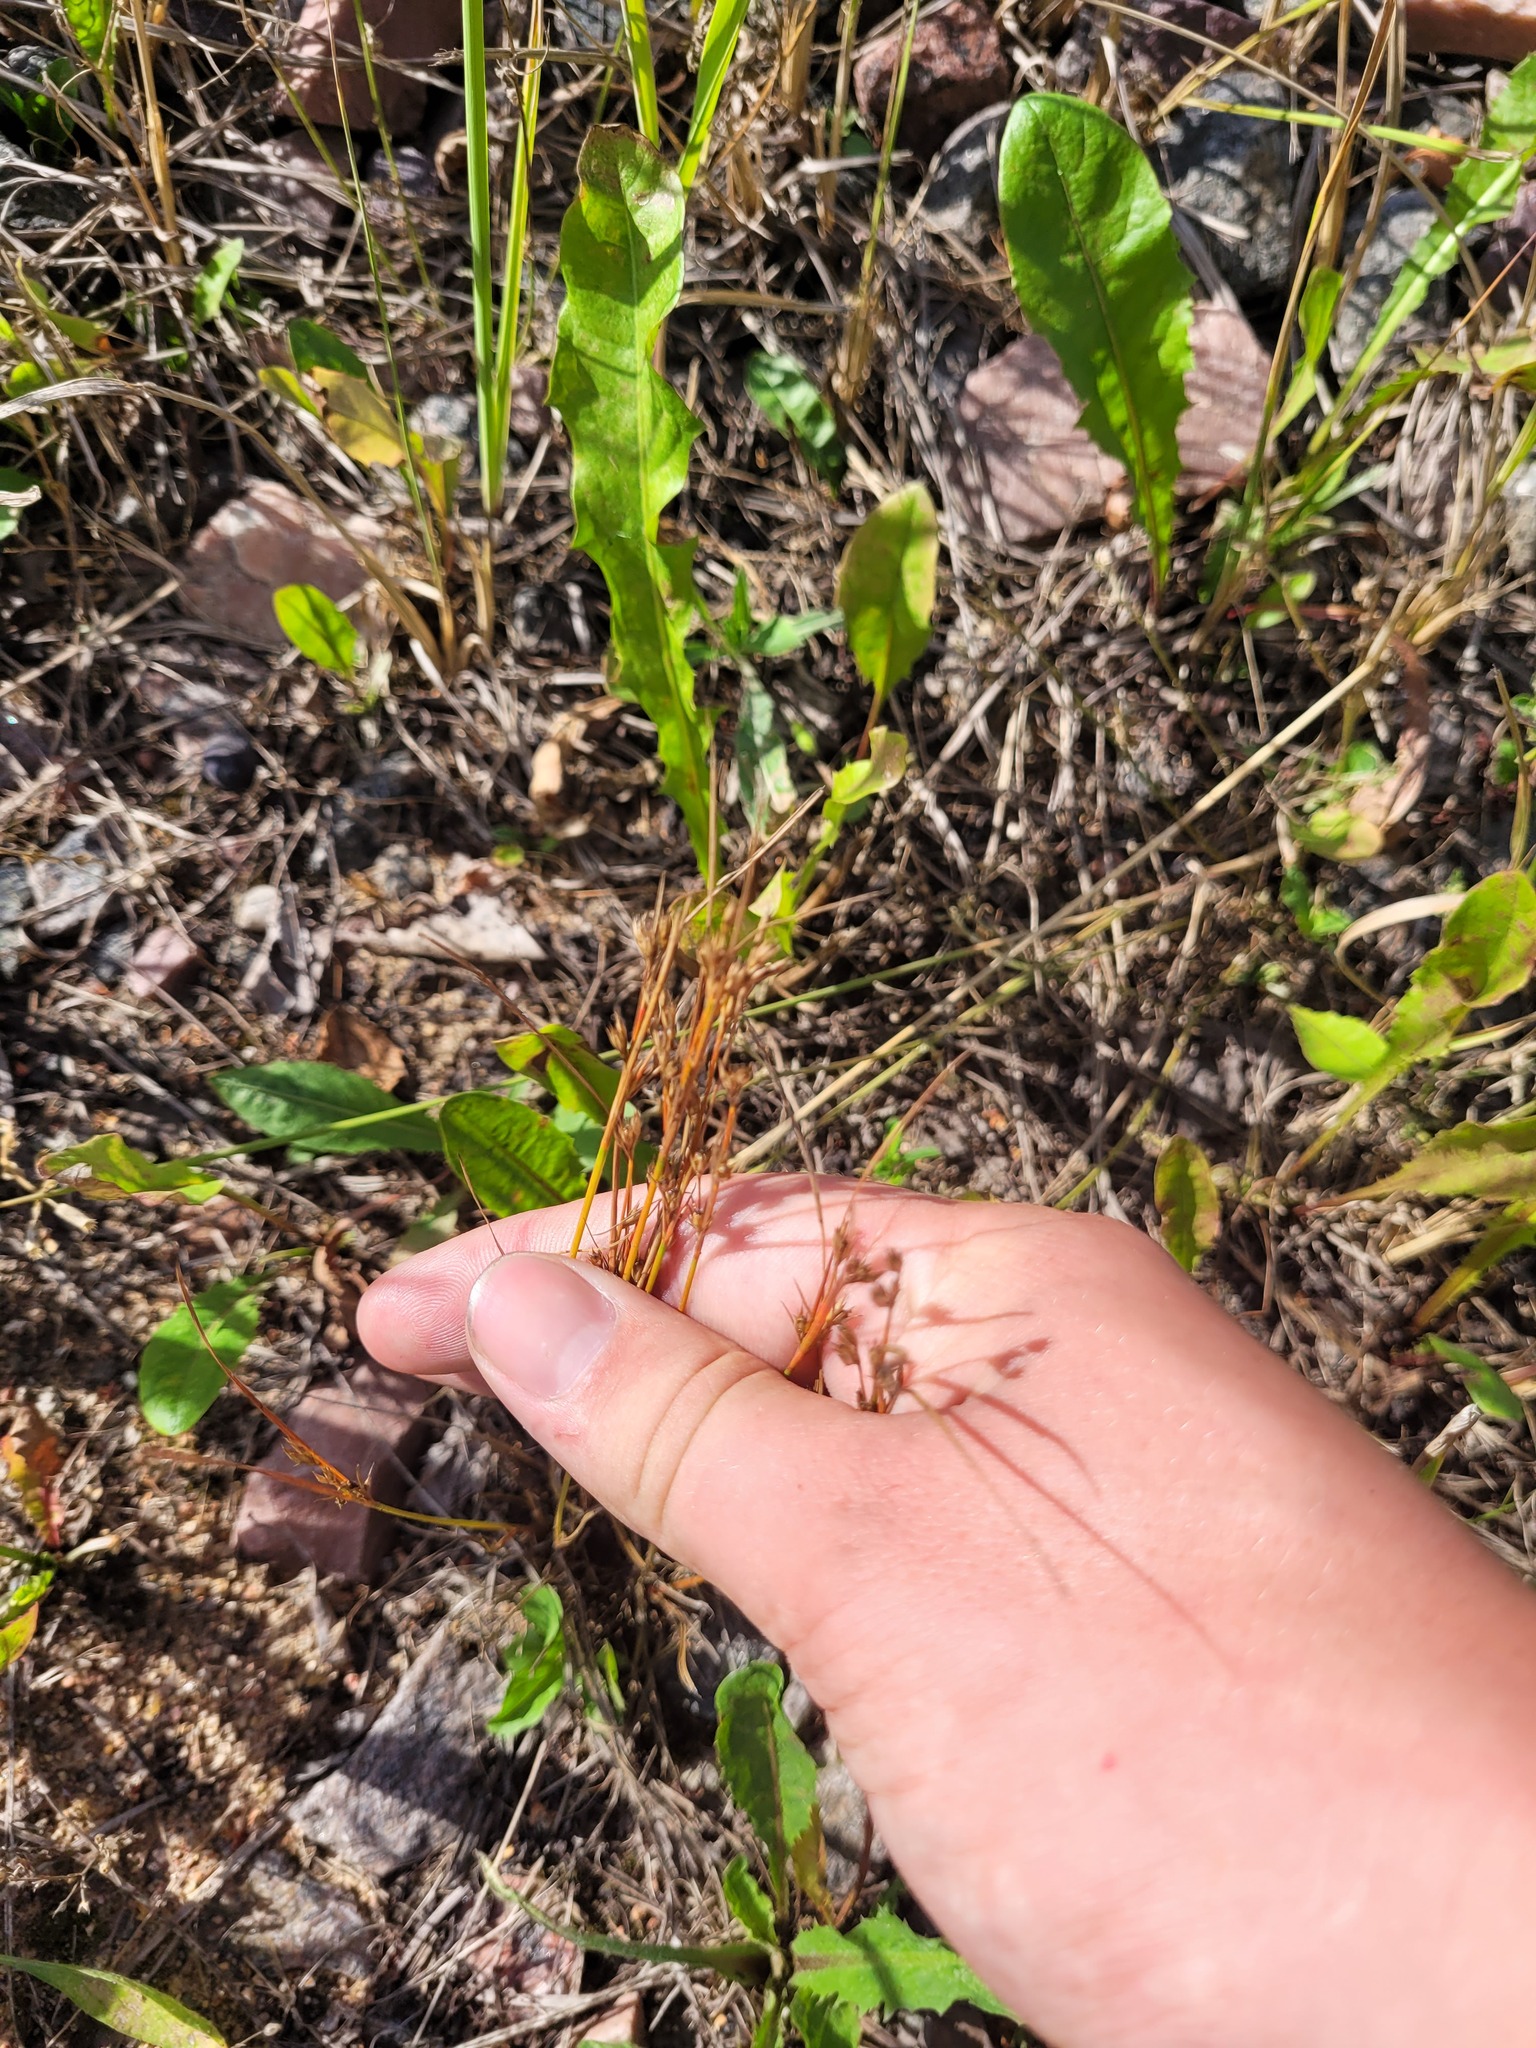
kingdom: Plantae
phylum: Tracheophyta
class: Liliopsida
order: Poales
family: Juncaceae
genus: Juncus
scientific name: Juncus tenuis
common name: Slender rush
